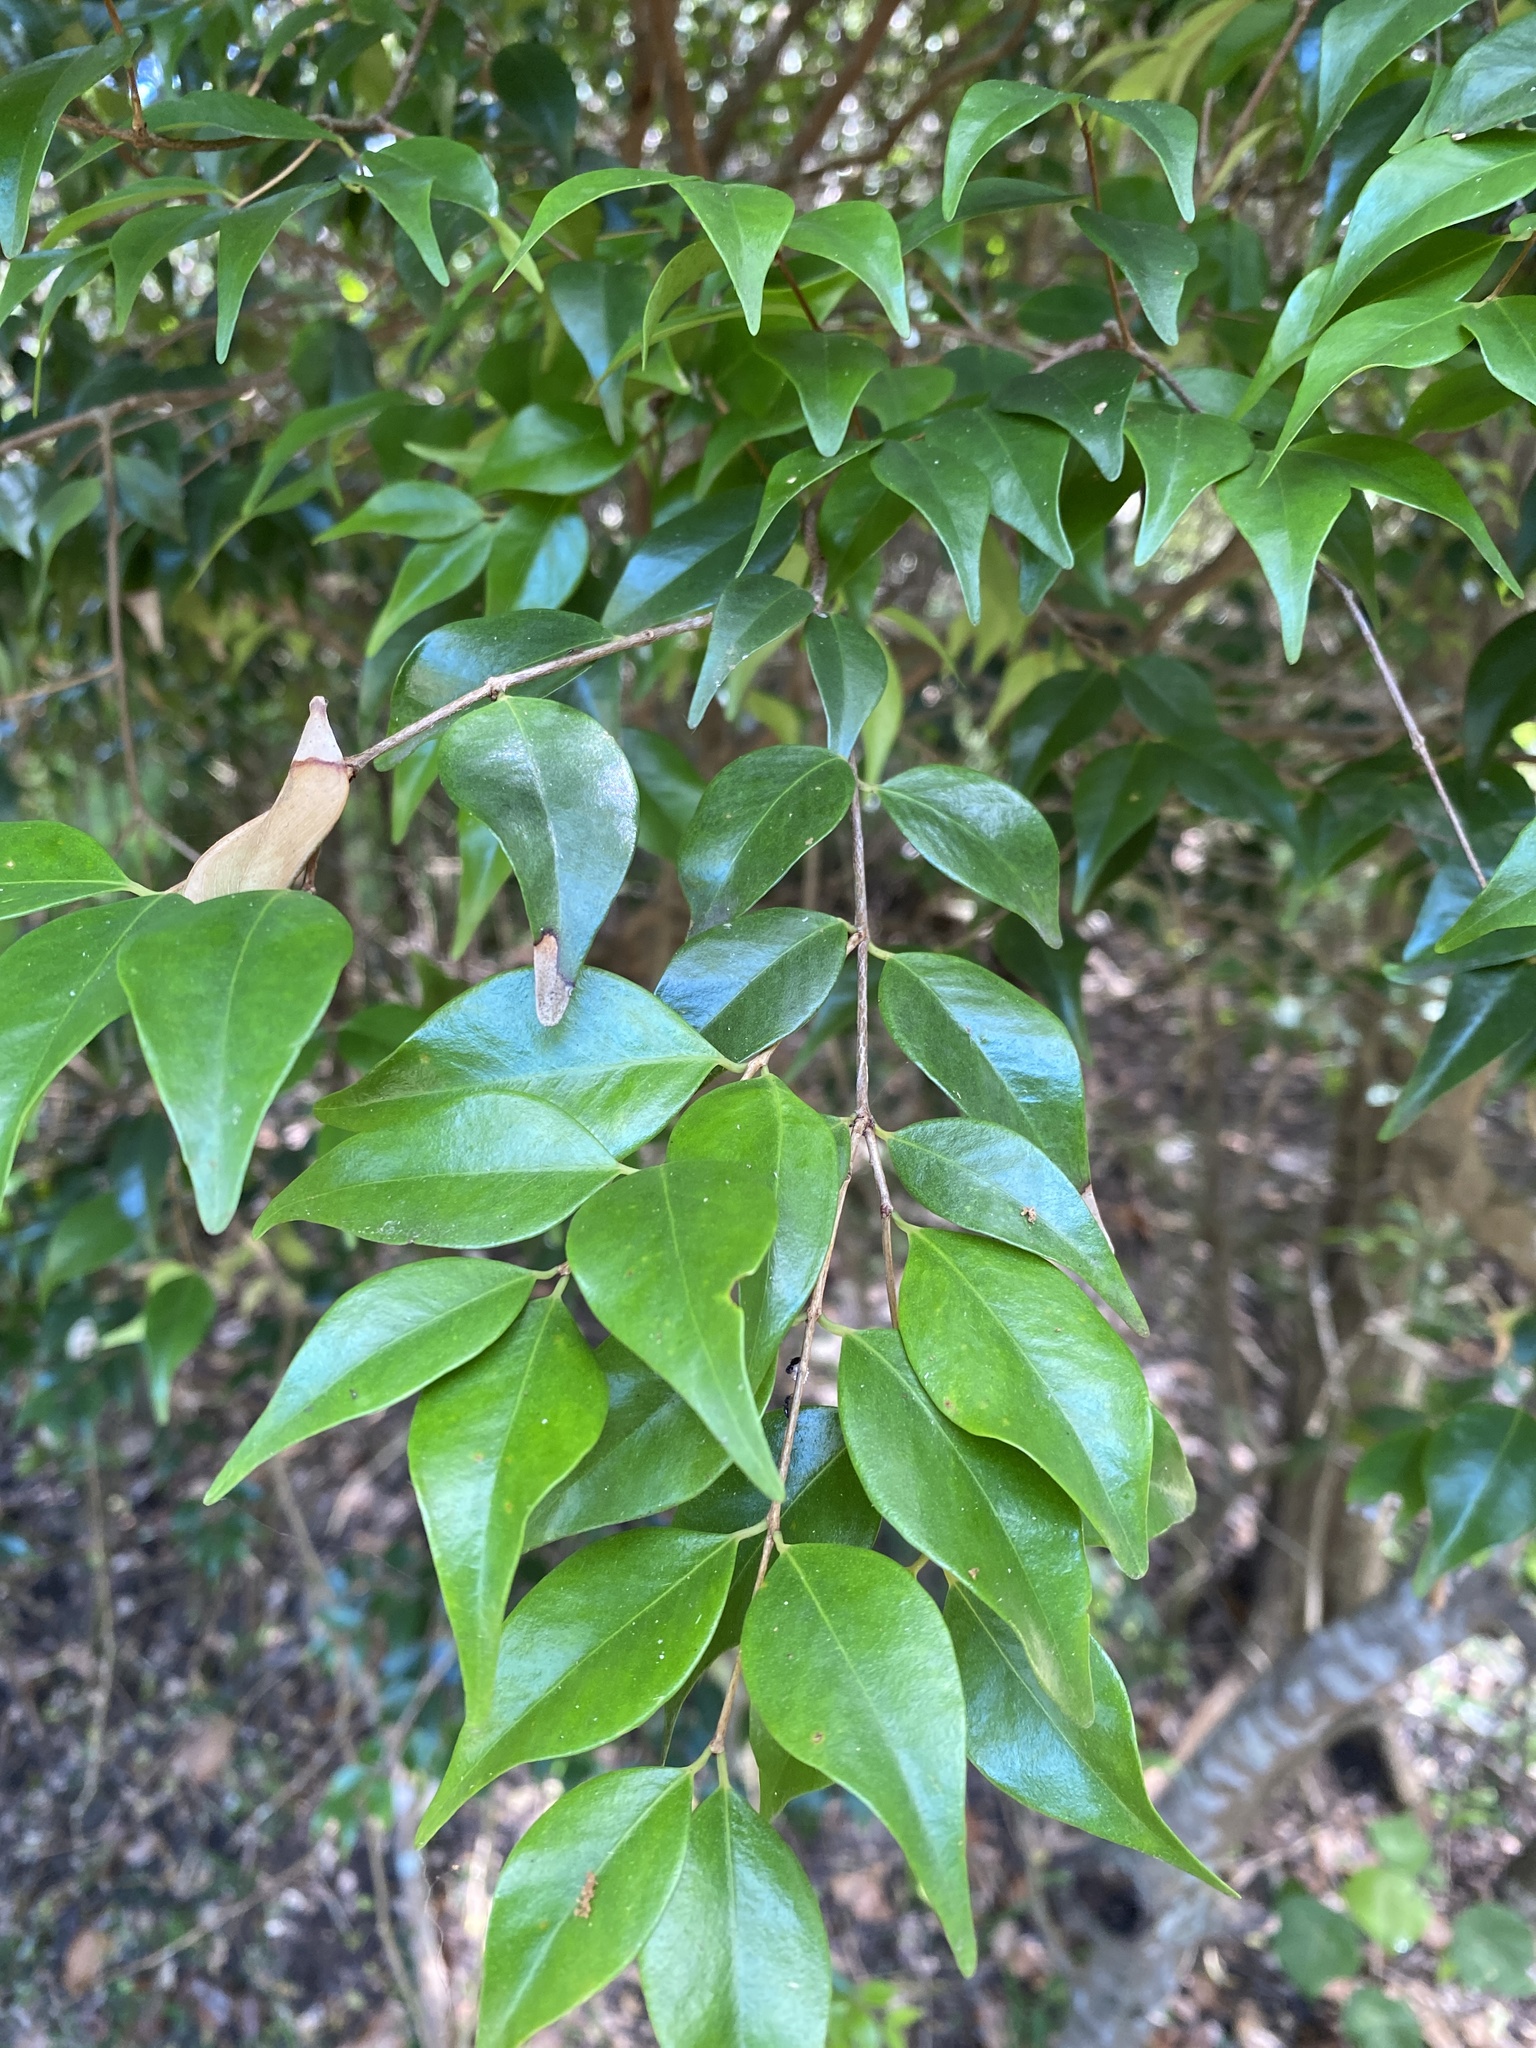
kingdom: Plantae
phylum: Tracheophyta
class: Magnoliopsida
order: Myrtales
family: Myrtaceae
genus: Syzygium
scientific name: Syzygium luehmannii
